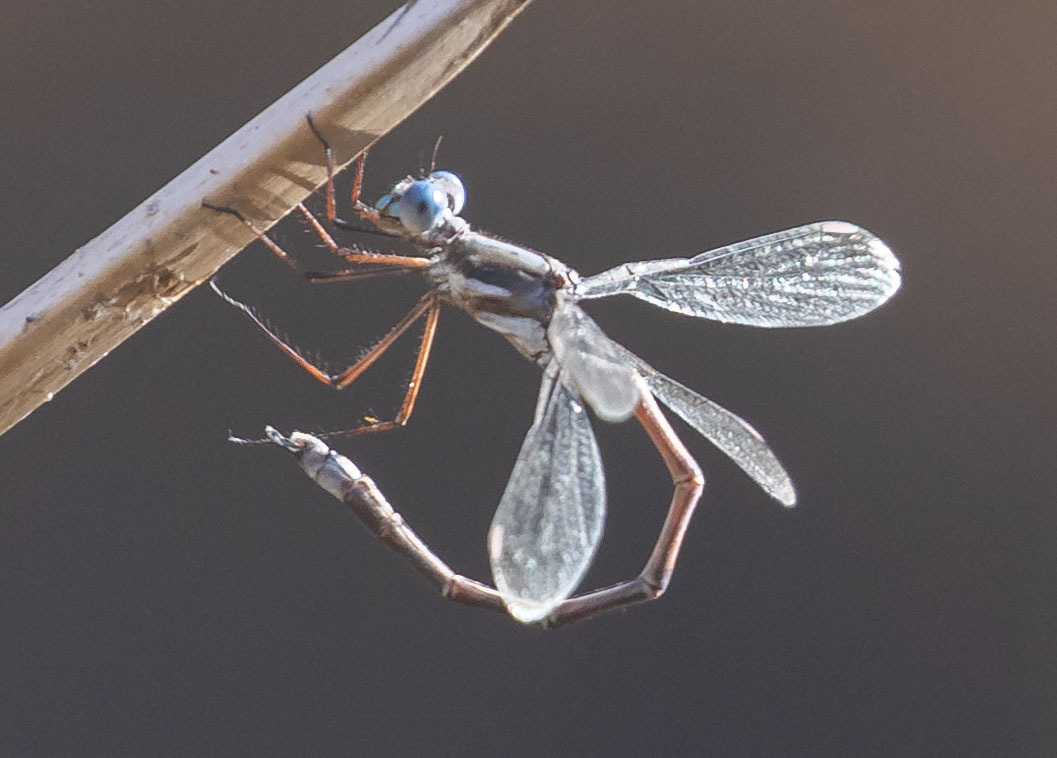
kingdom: Animalia
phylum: Arthropoda
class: Insecta
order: Odonata
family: Lestidae
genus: Archilestes
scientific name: Archilestes californicus
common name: California spreadwing
